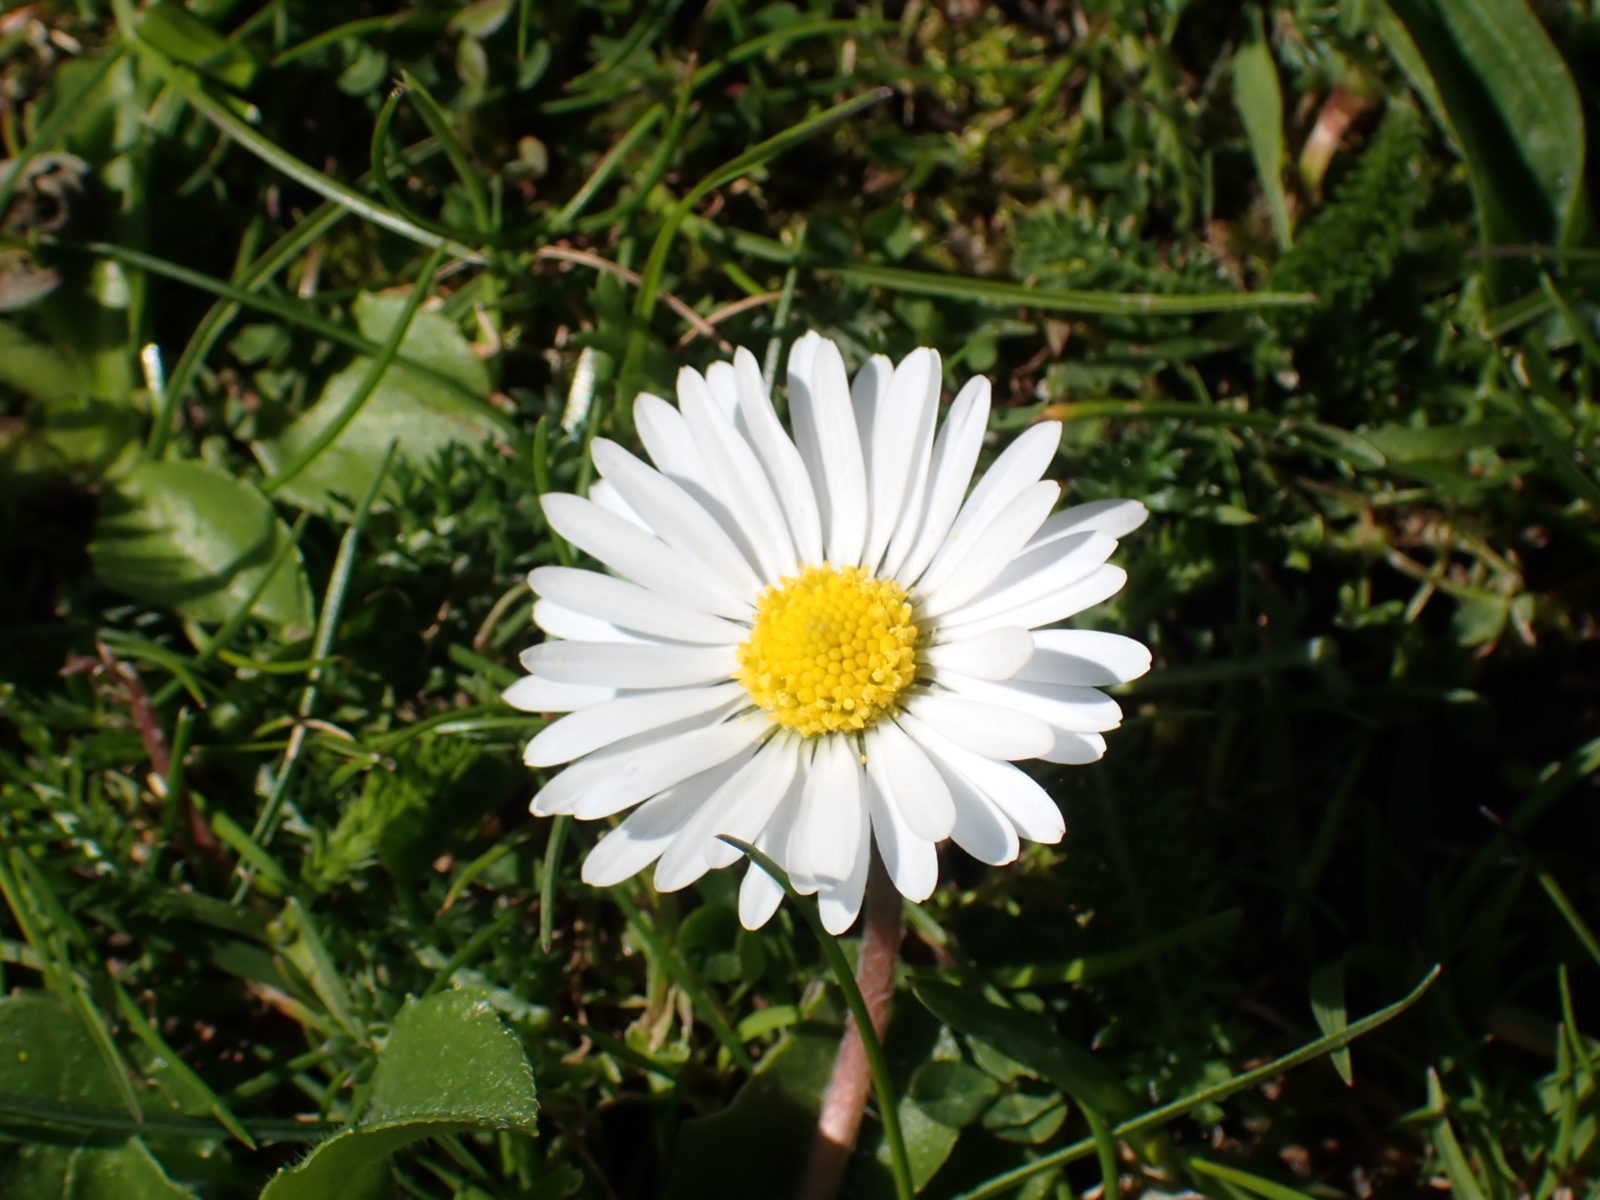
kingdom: Plantae
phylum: Tracheophyta
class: Magnoliopsida
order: Asterales
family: Asteraceae
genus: Bellis
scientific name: Bellis perennis
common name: Lawndaisy
